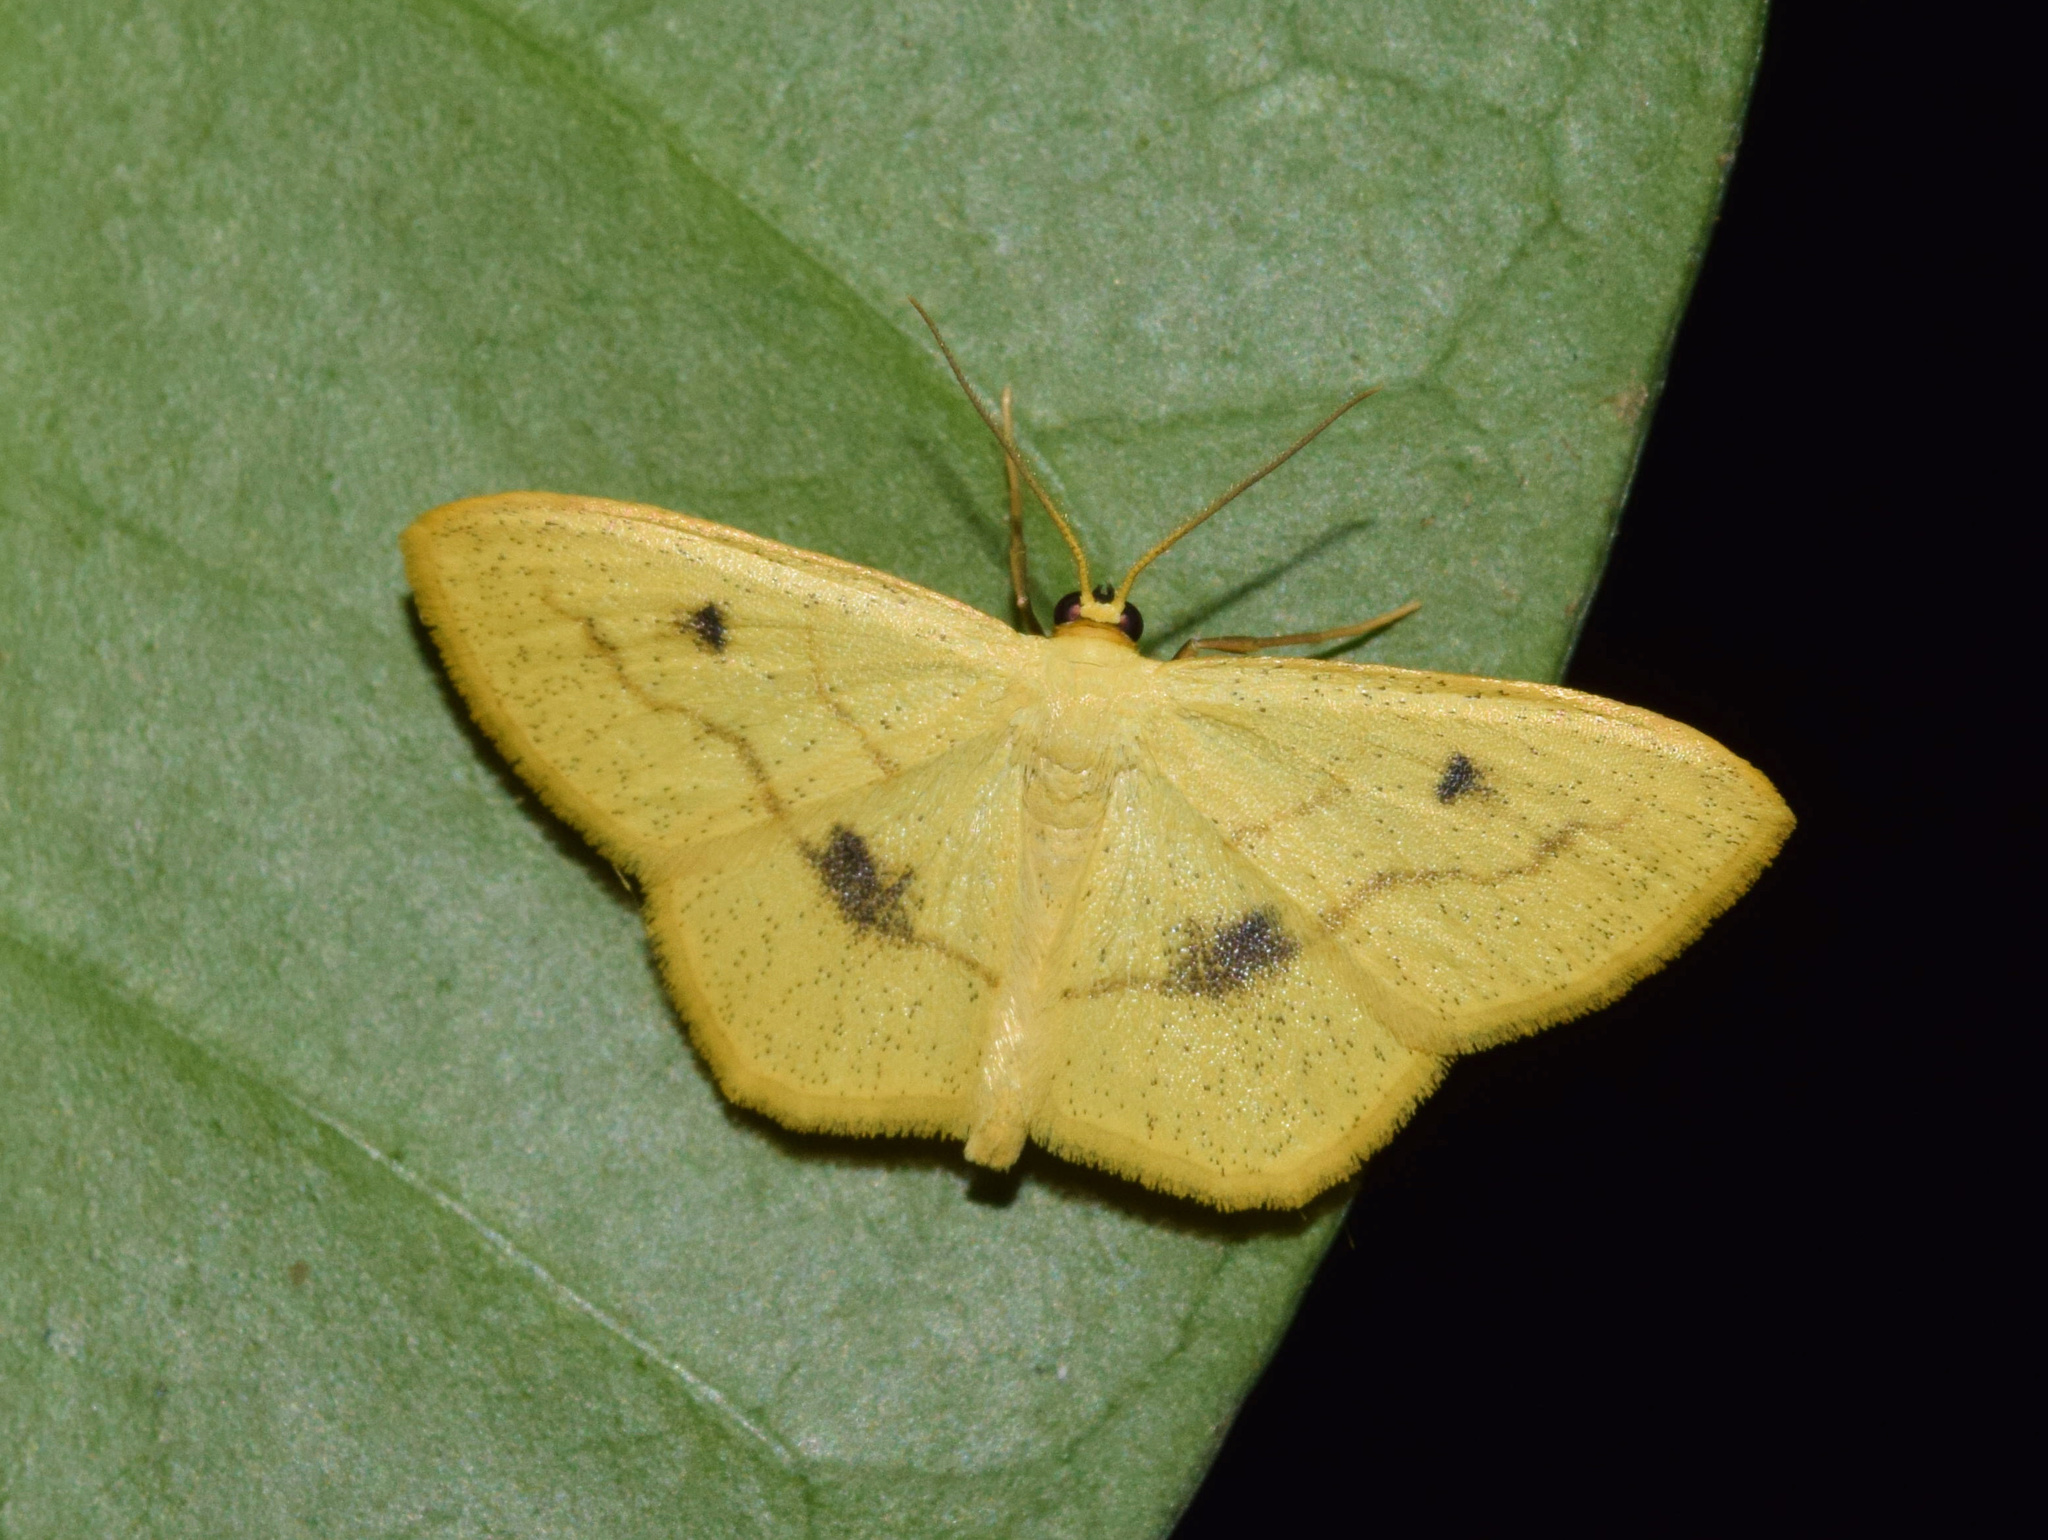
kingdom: Animalia
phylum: Arthropoda
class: Insecta
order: Lepidoptera
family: Geometridae
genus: Scopula
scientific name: Scopula straminea
